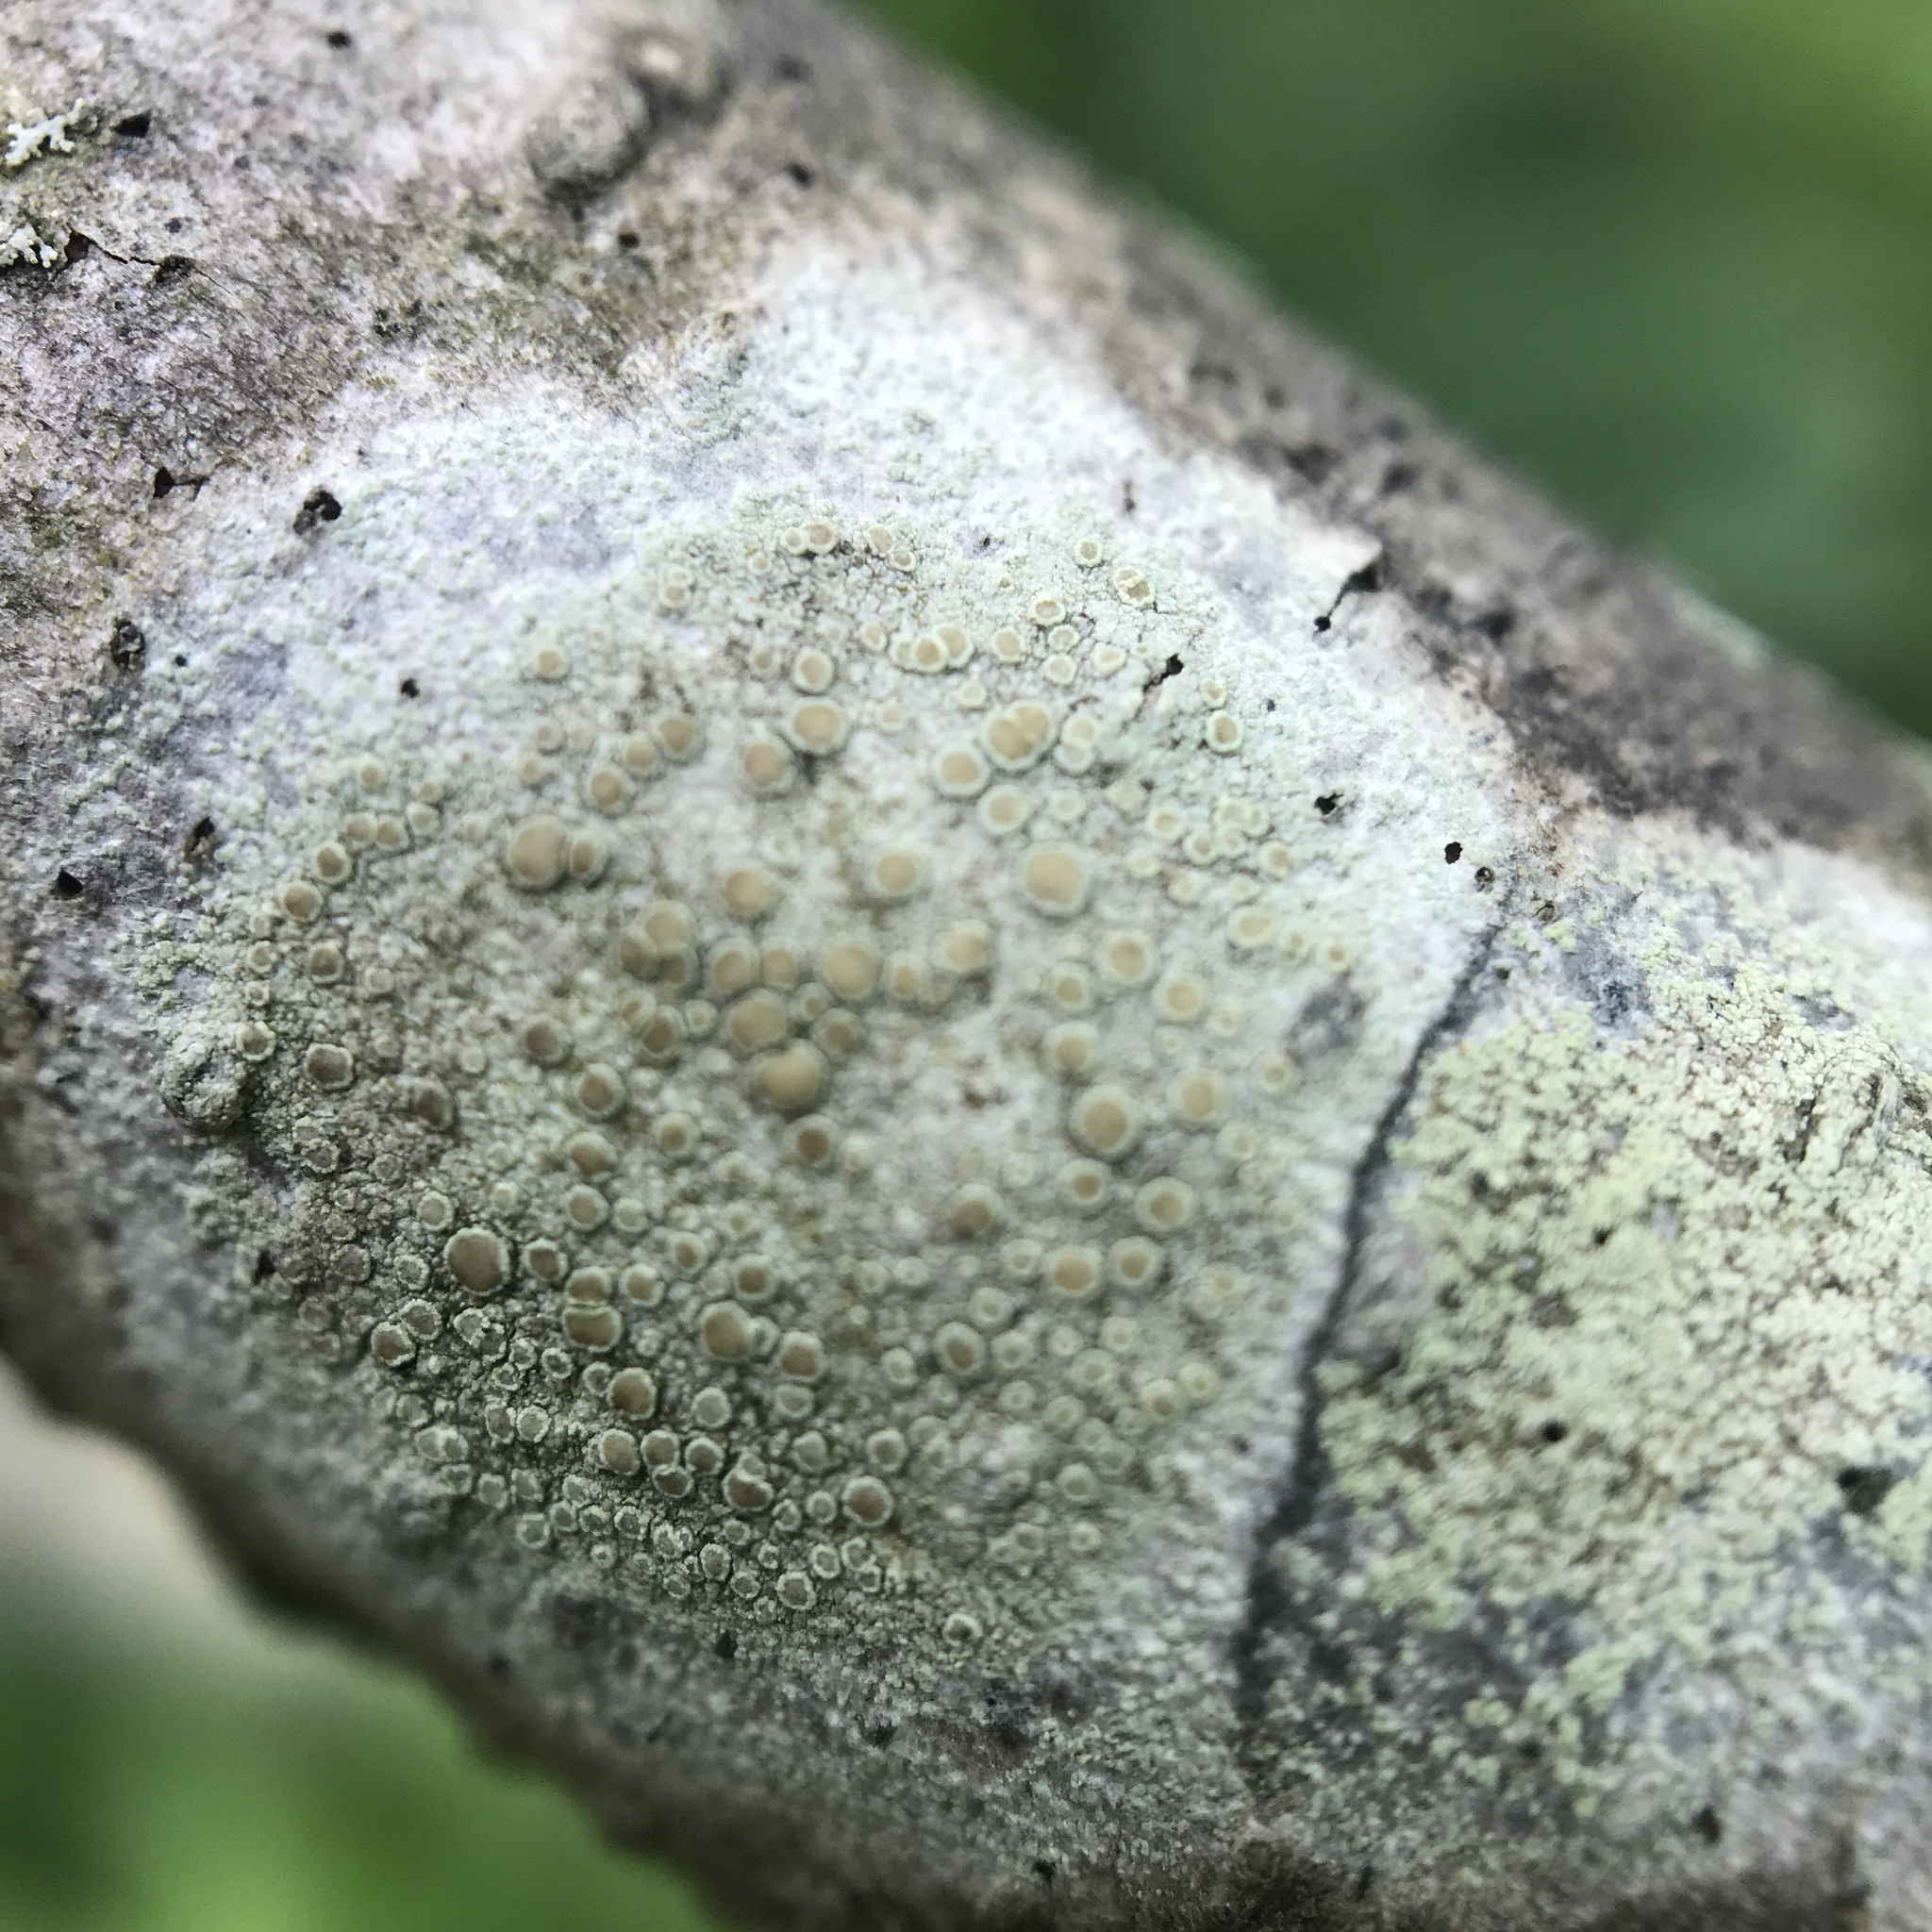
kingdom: Fungi
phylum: Ascomycota
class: Lecanoromycetes
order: Lecanorales
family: Lecanoraceae
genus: Lecanora
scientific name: Lecanora strobilina
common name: Mealy rim-lichen
